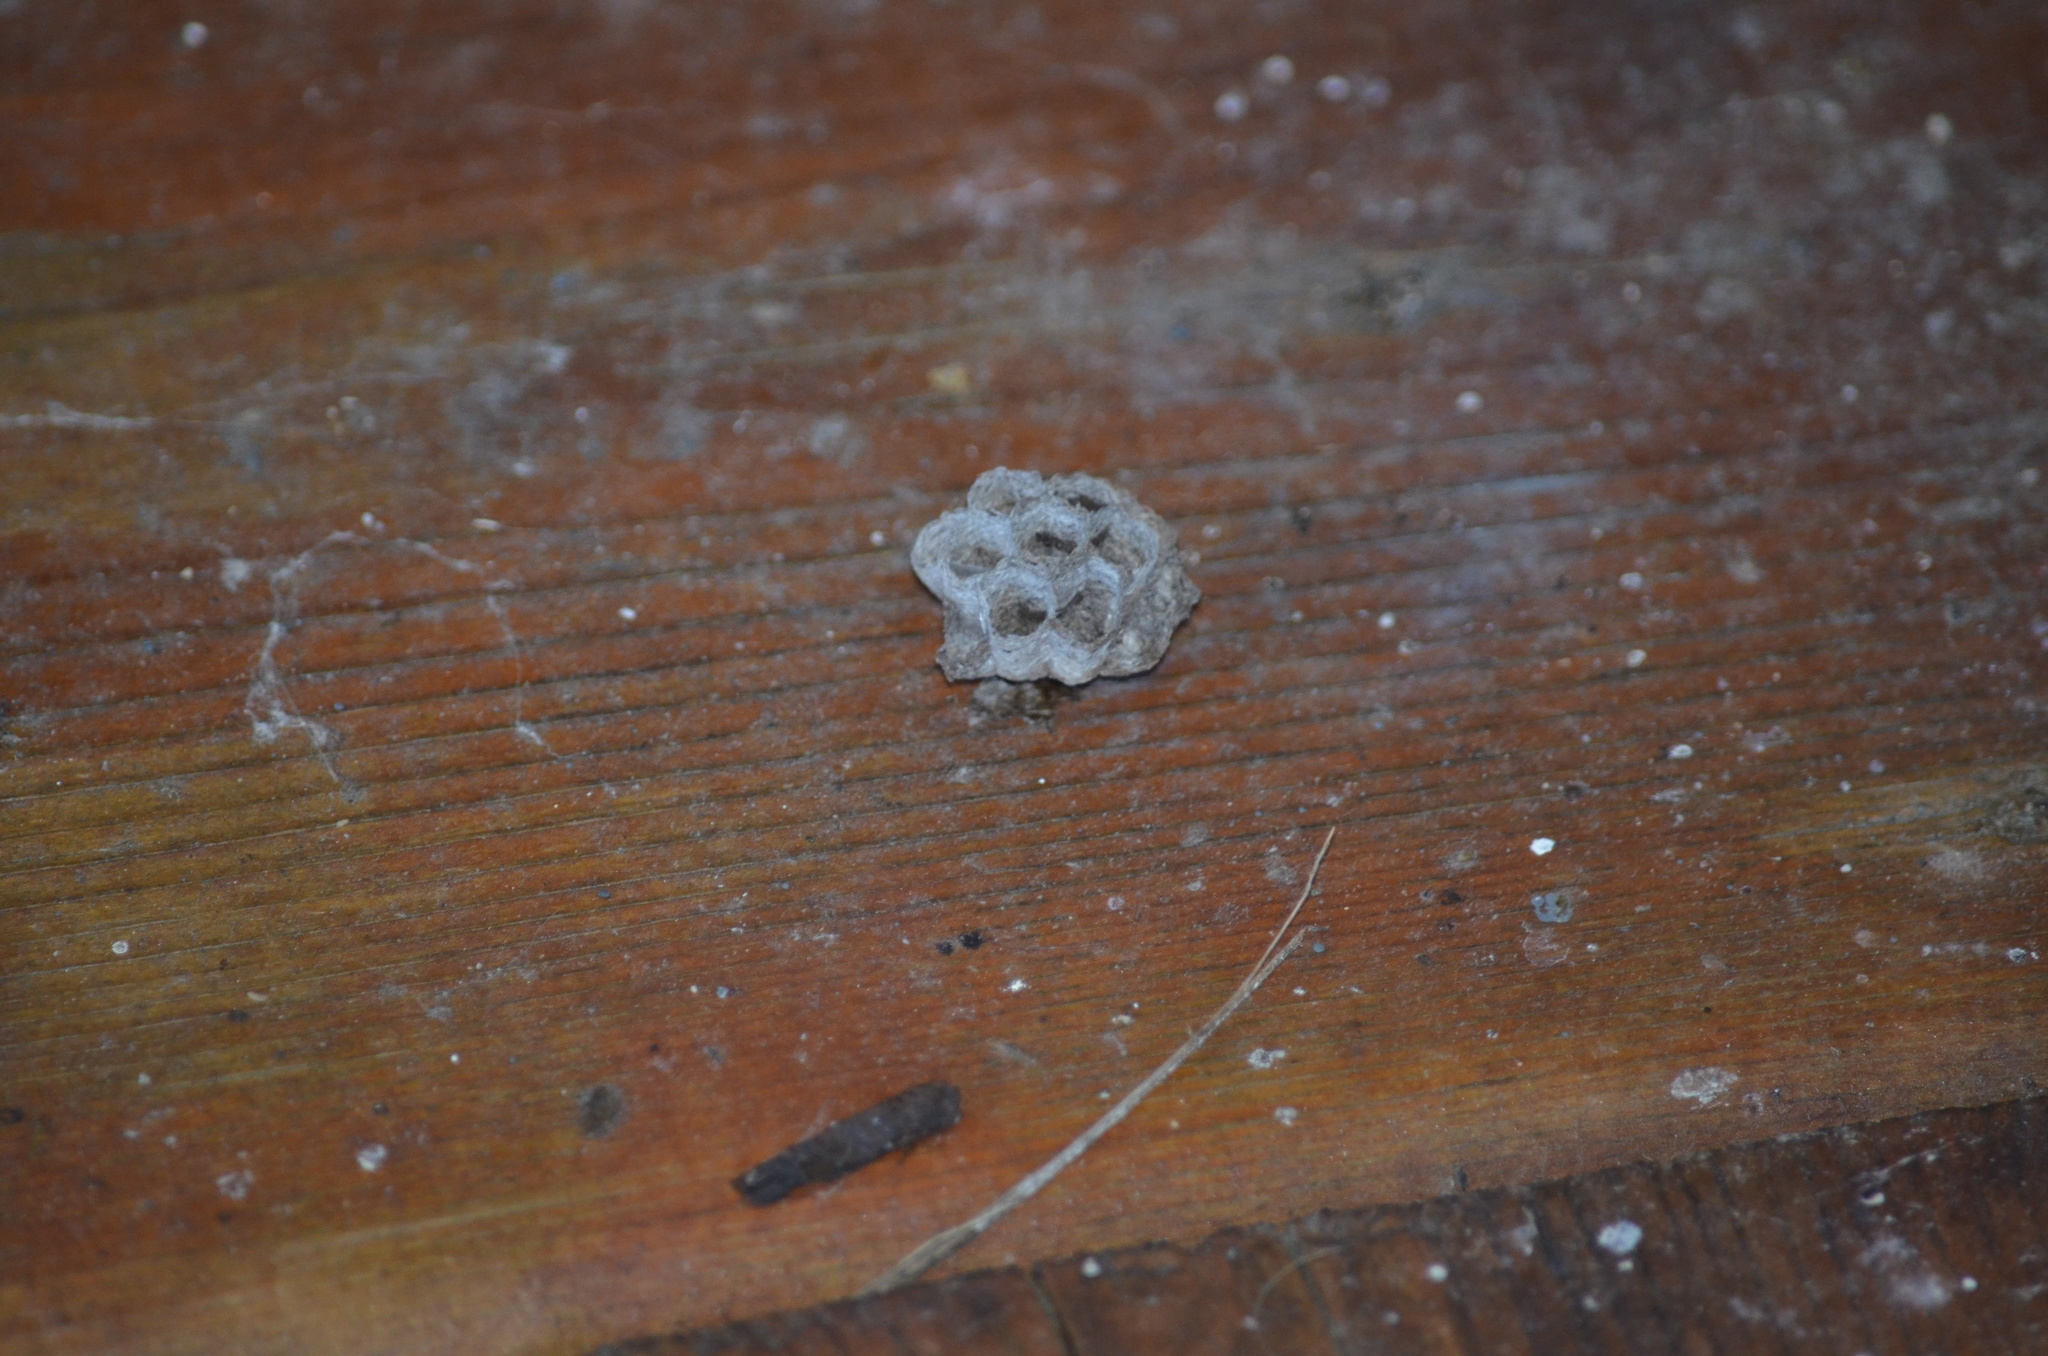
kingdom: Animalia
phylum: Arthropoda
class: Insecta
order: Hymenoptera
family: Vespidae
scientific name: Vespidae
